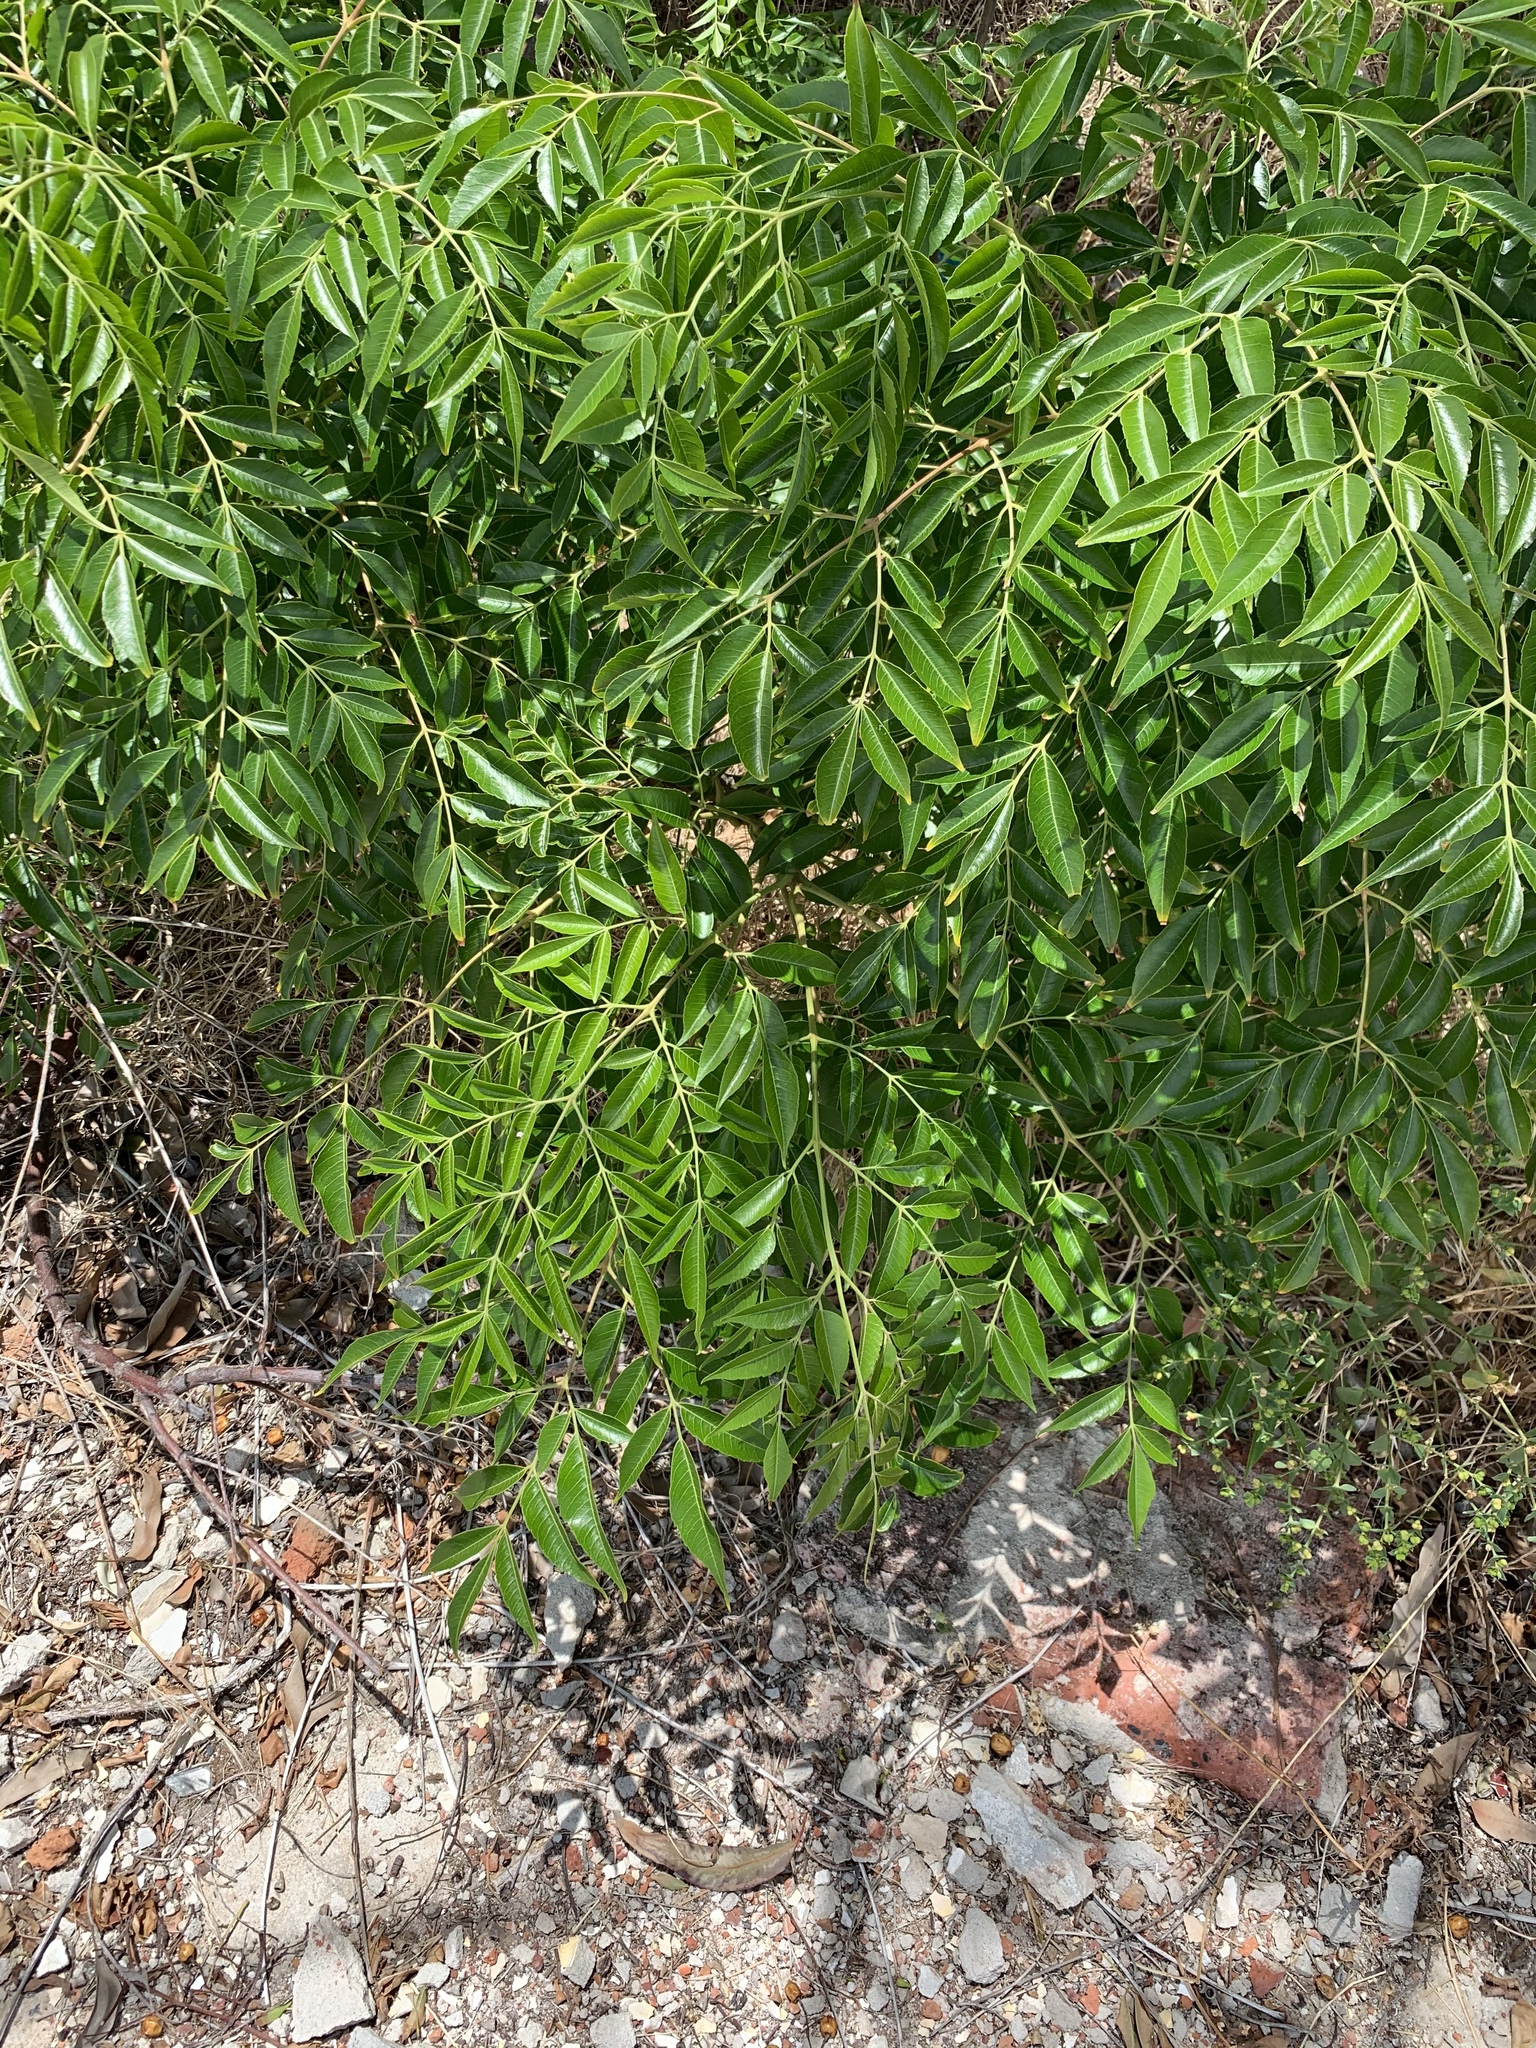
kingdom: Plantae
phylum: Tracheophyta
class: Magnoliopsida
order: Sapindales
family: Meliaceae
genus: Melia
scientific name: Melia azedarach
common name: Chinaberrytree
